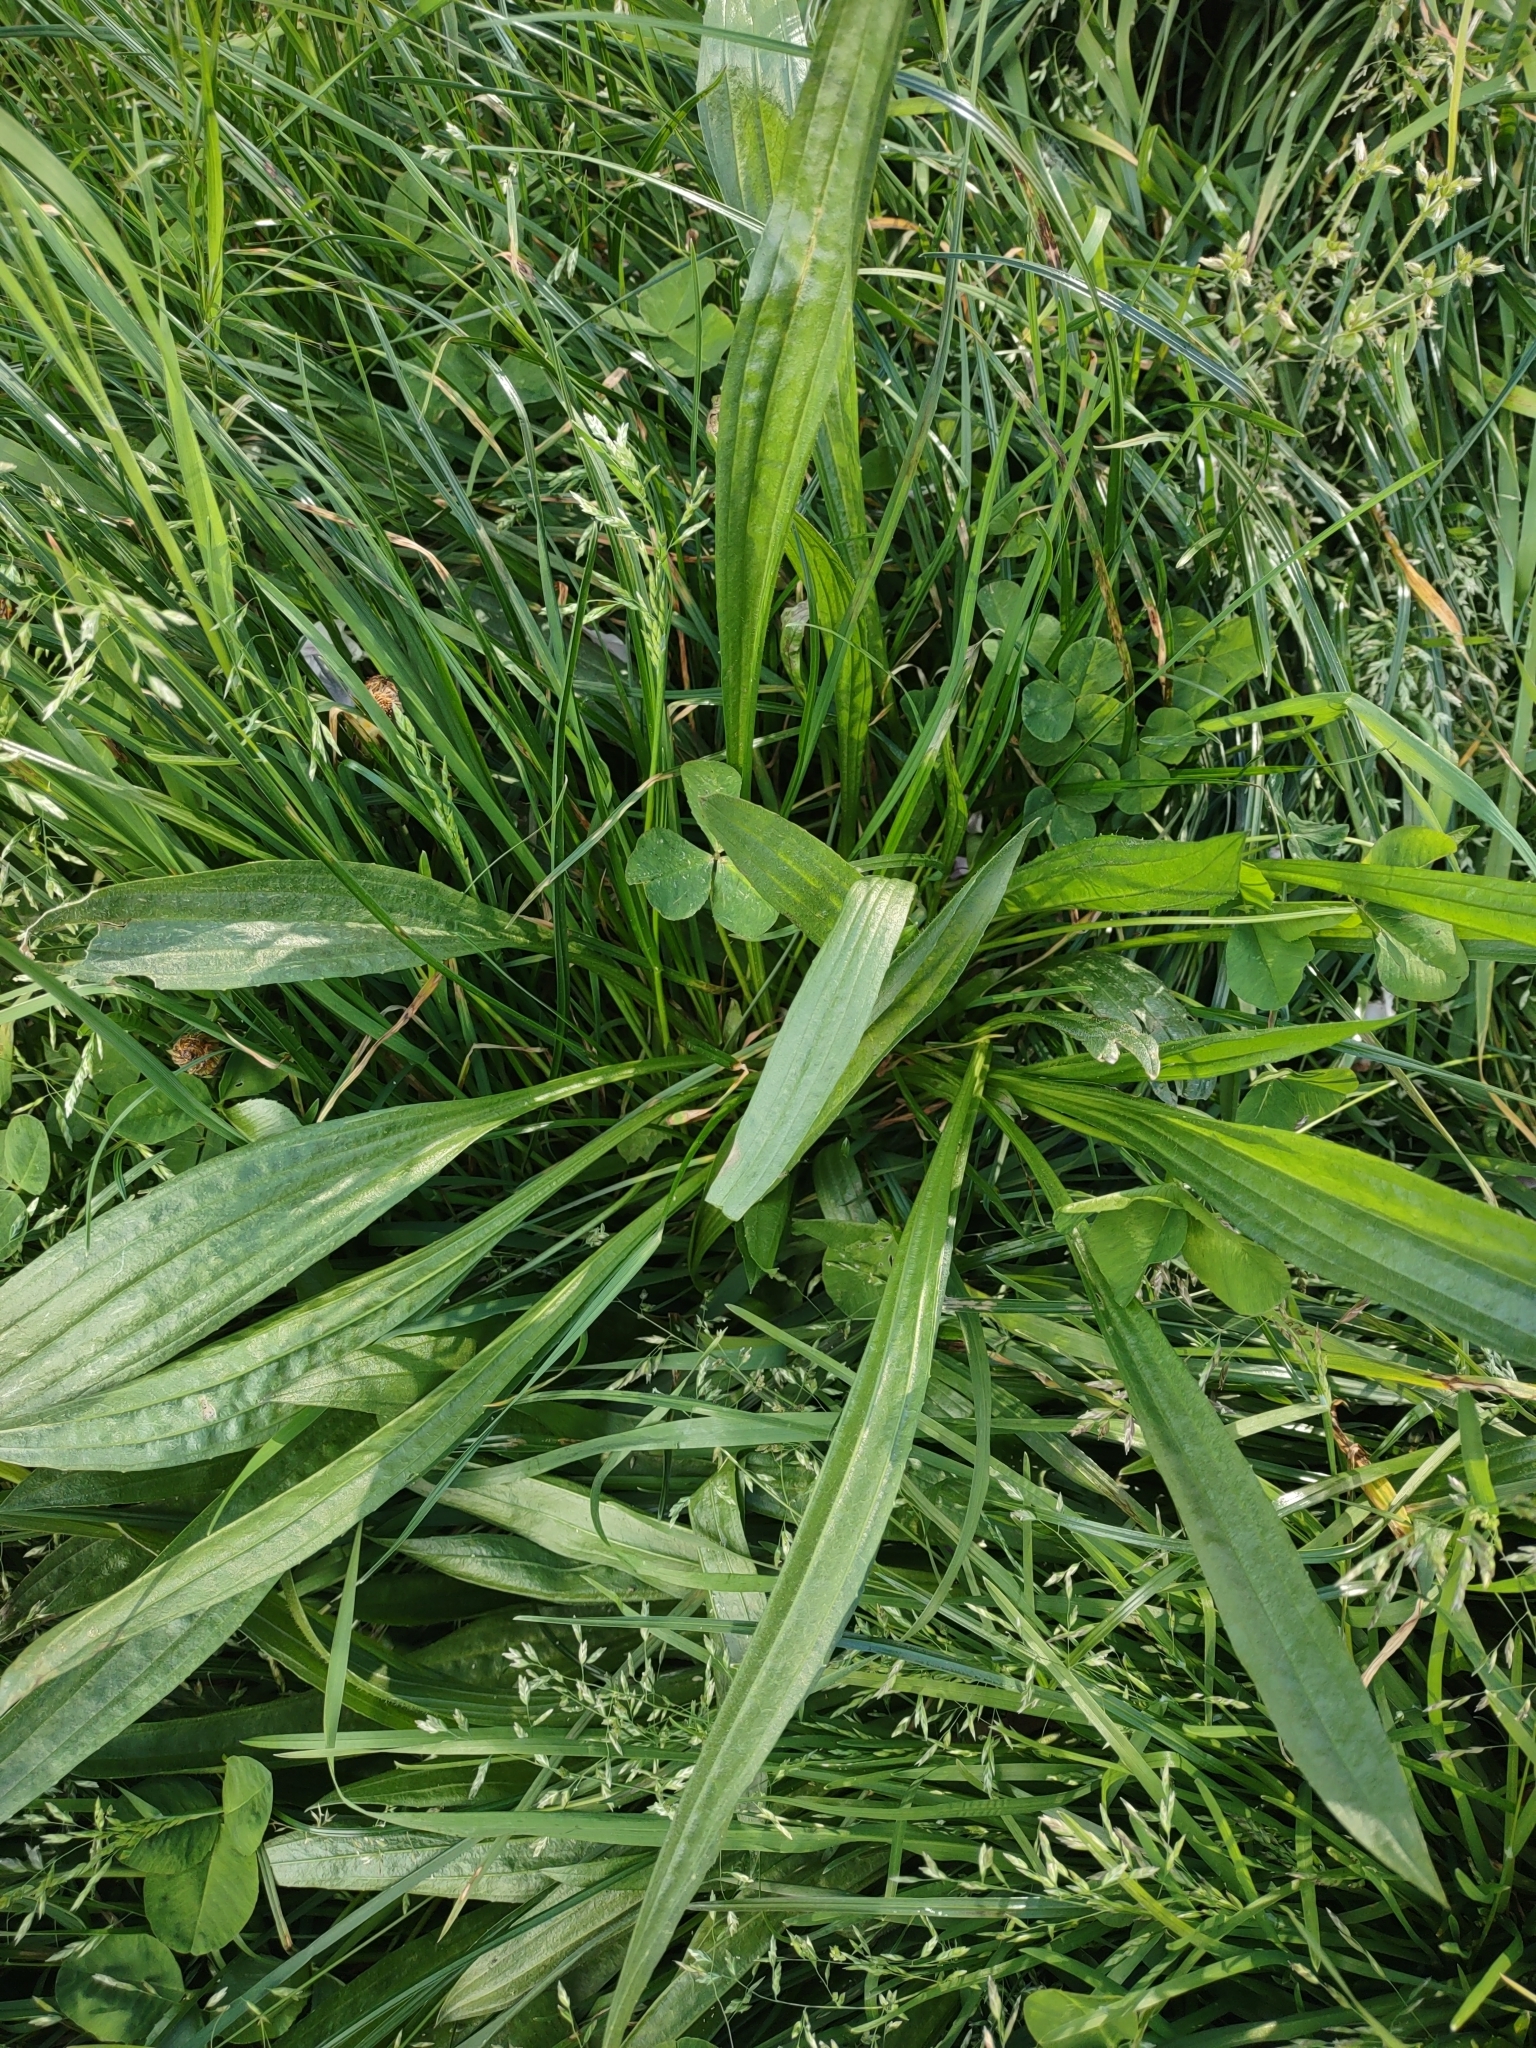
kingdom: Plantae
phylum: Tracheophyta
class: Magnoliopsida
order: Lamiales
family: Plantaginaceae
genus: Plantago
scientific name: Plantago lanceolata
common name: Ribwort plantain
